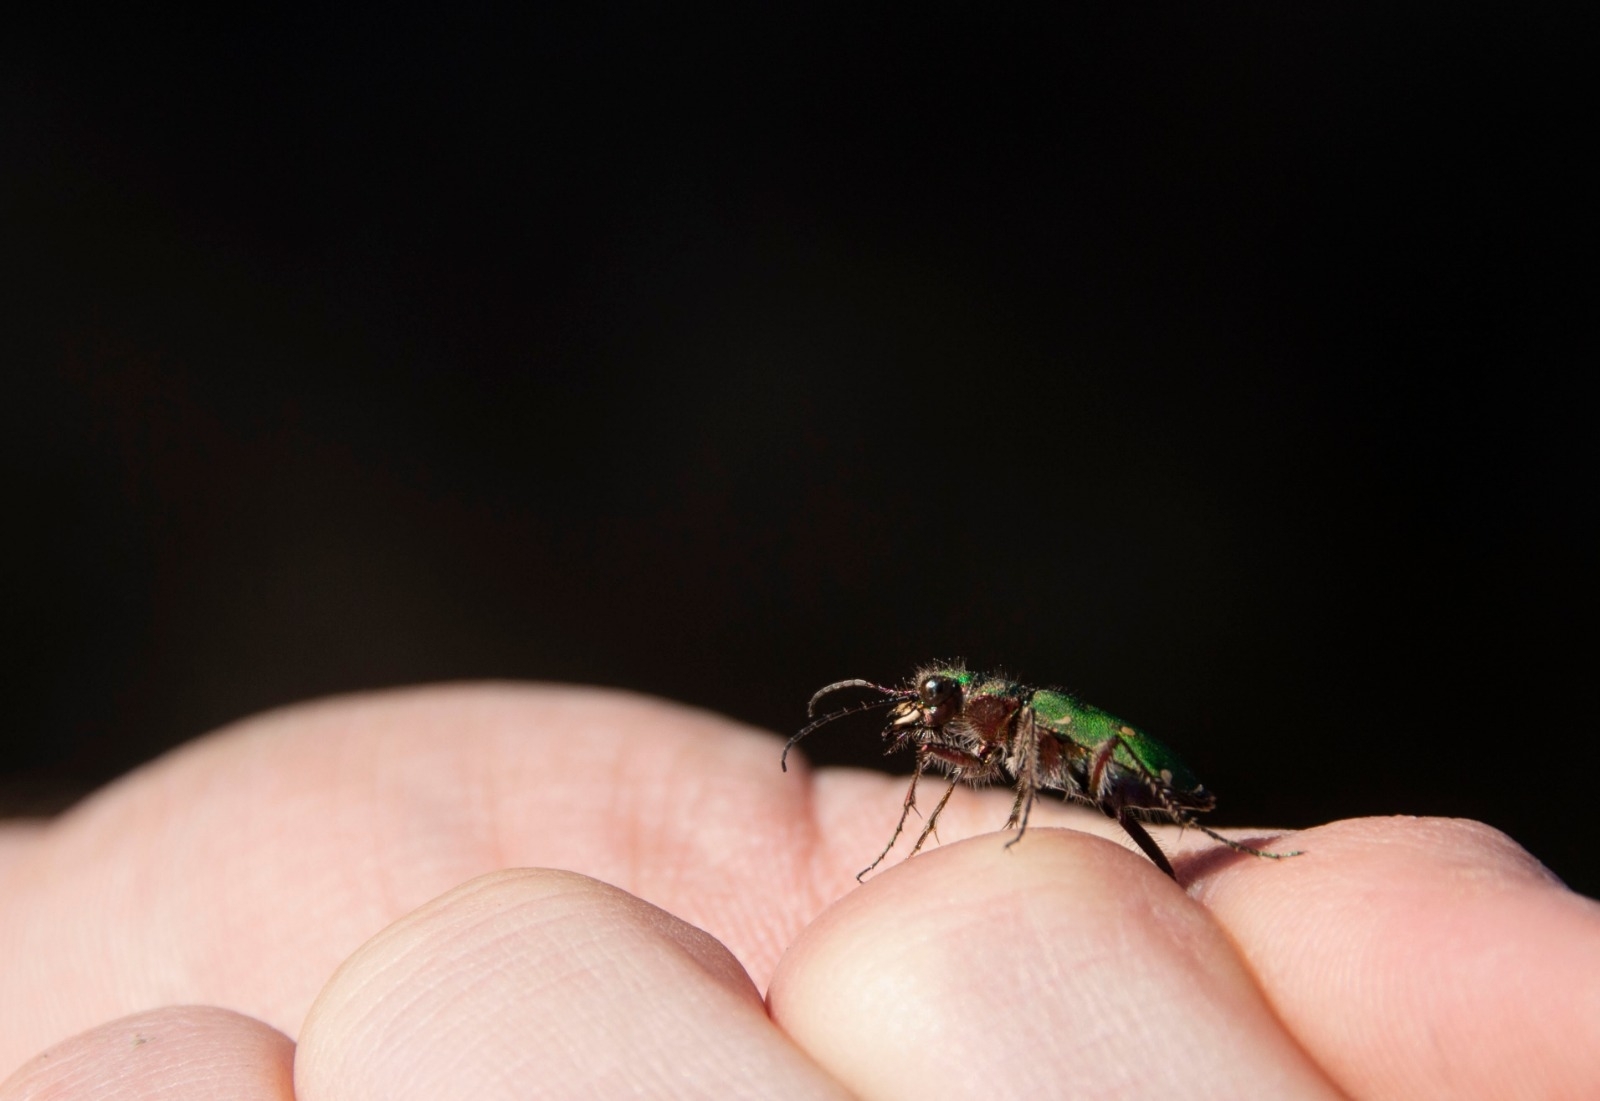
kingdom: Animalia
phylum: Arthropoda
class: Insecta
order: Coleoptera
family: Carabidae
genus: Cicindela
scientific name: Cicindela campestris
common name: Common tiger beetle
